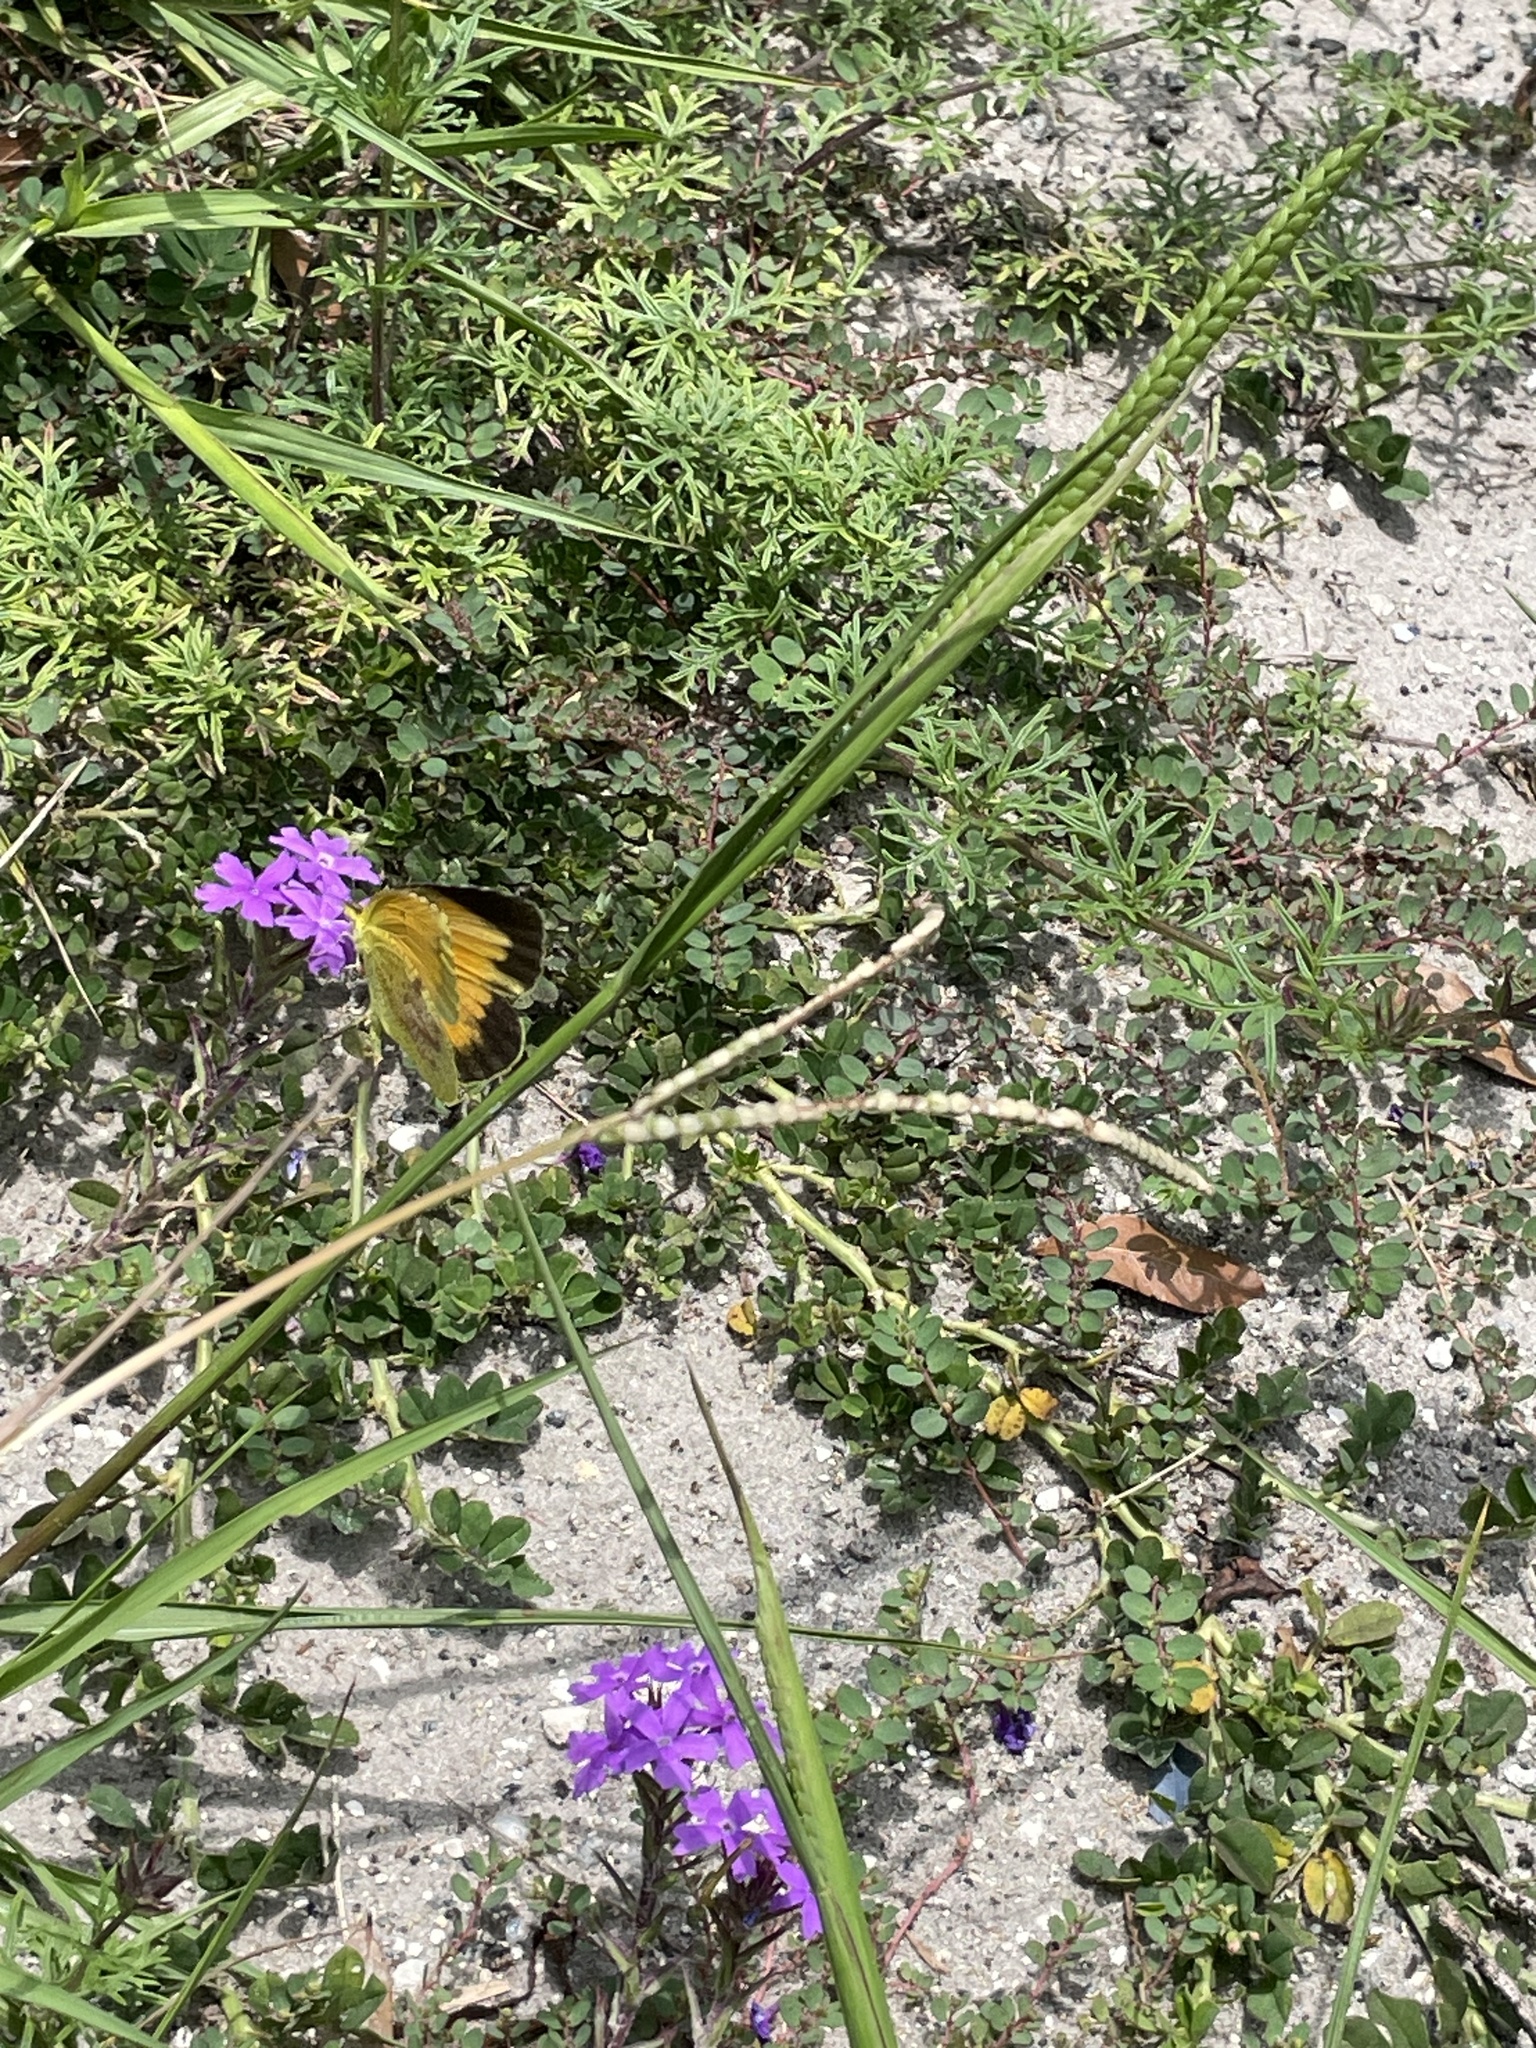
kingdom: Animalia
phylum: Arthropoda
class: Insecta
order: Lepidoptera
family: Pieridae
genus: Abaeis
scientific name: Abaeis nicippe
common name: Sleepy orange
